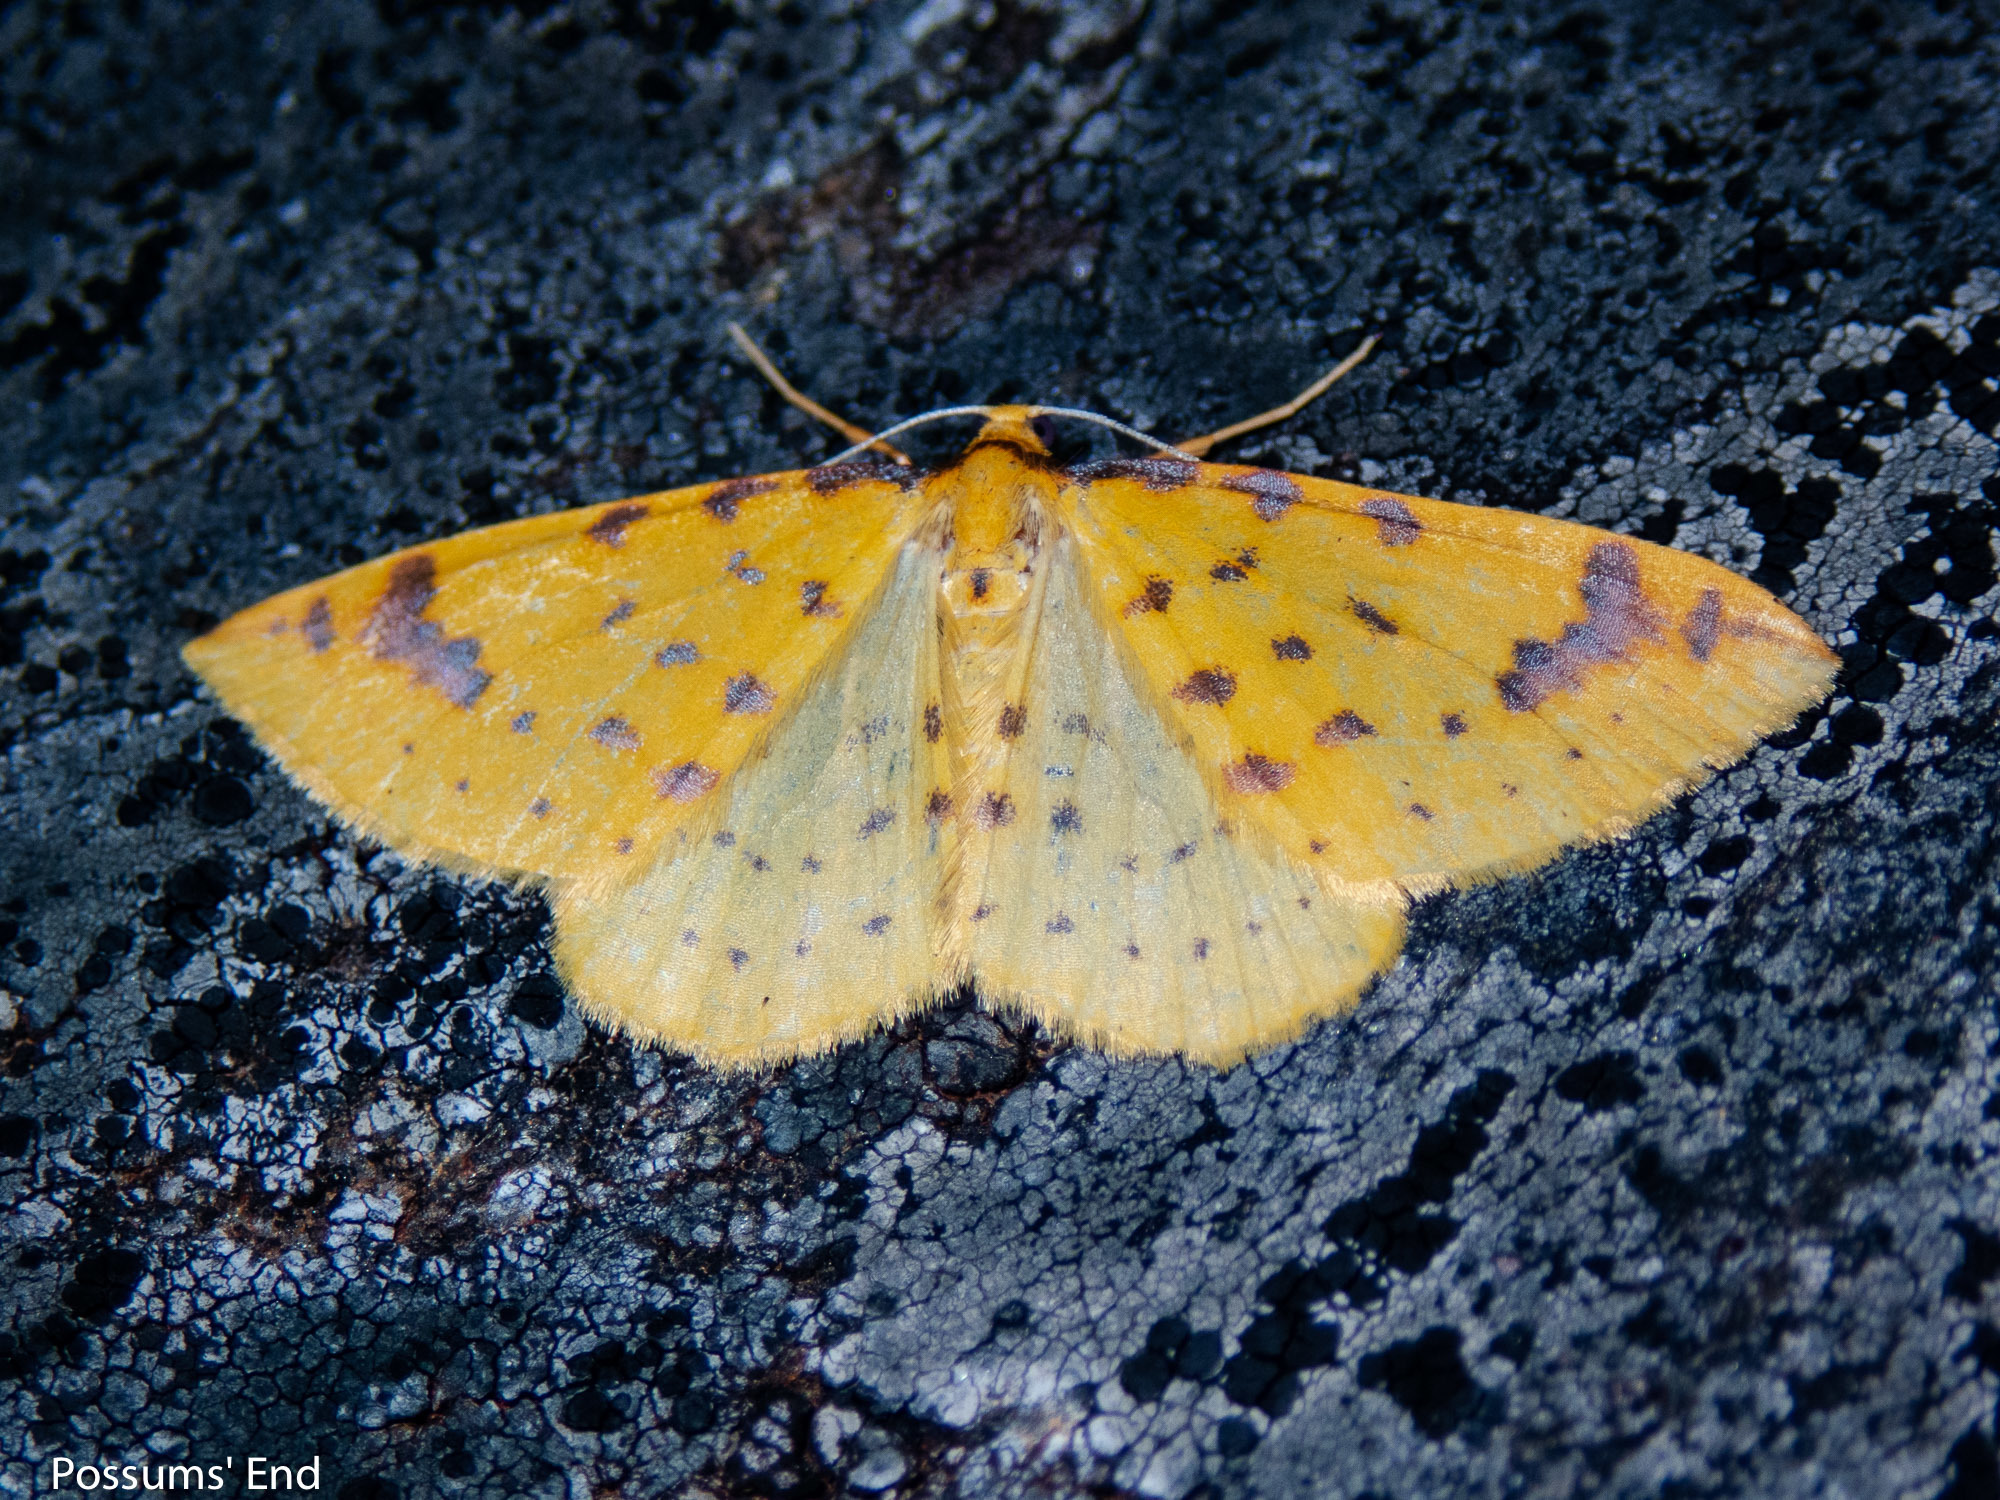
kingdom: Animalia
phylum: Arthropoda
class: Insecta
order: Lepidoptera
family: Geometridae
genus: Orthoclydon
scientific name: Orthoclydon chlorias
